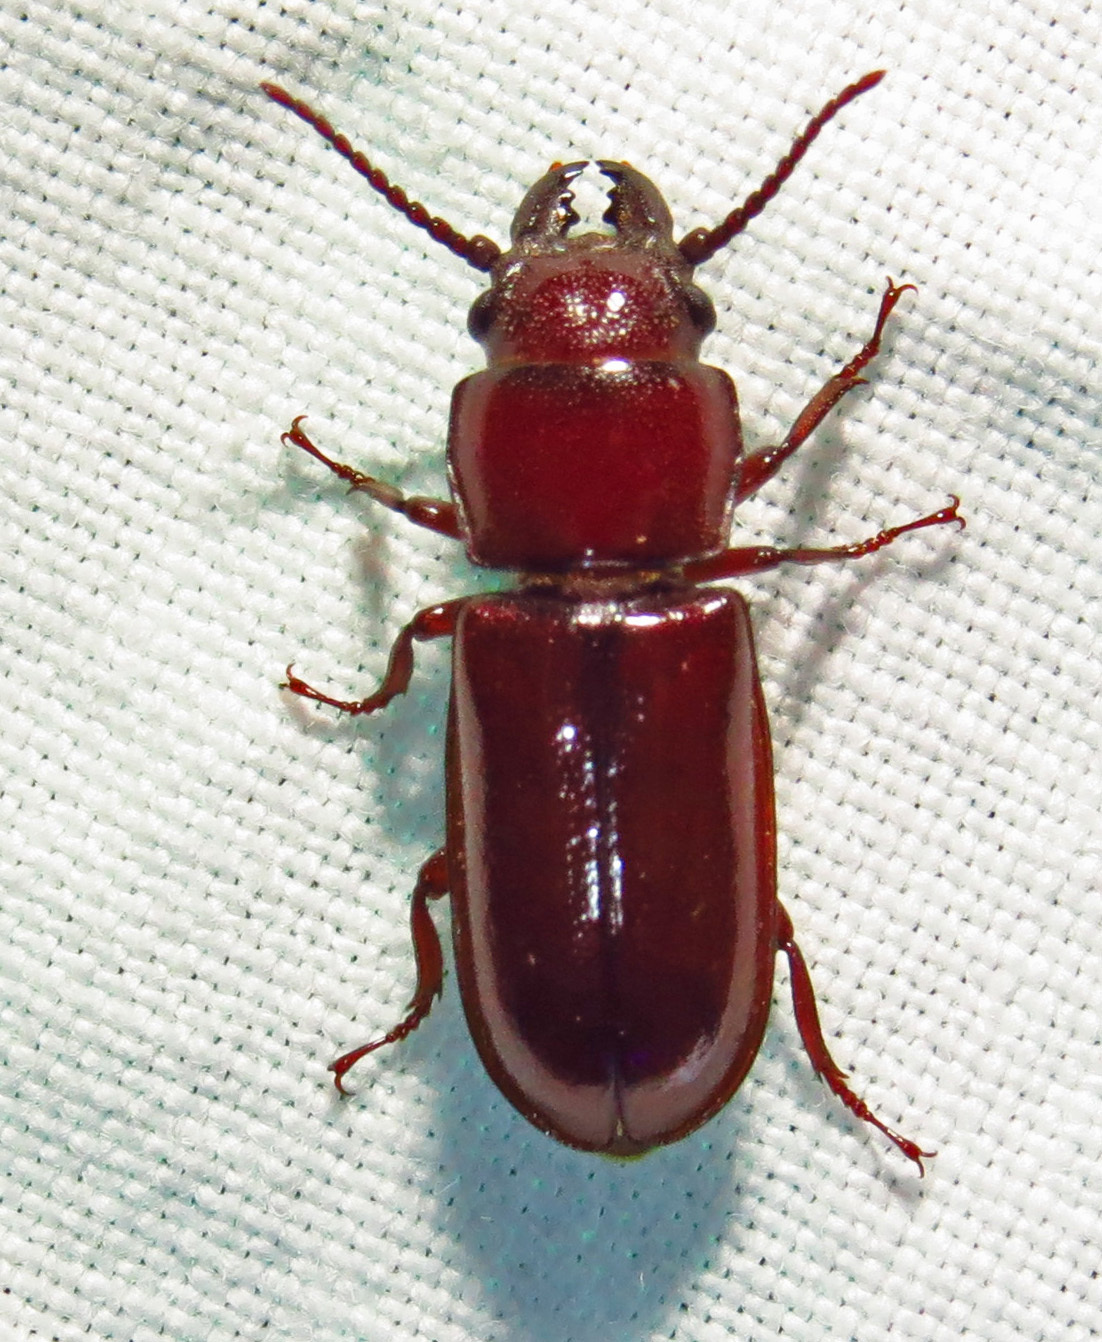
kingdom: Animalia
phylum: Arthropoda
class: Insecta
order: Coleoptera
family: Cerambycidae
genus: Neandra
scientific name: Neandra brunnea
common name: Pole borer
